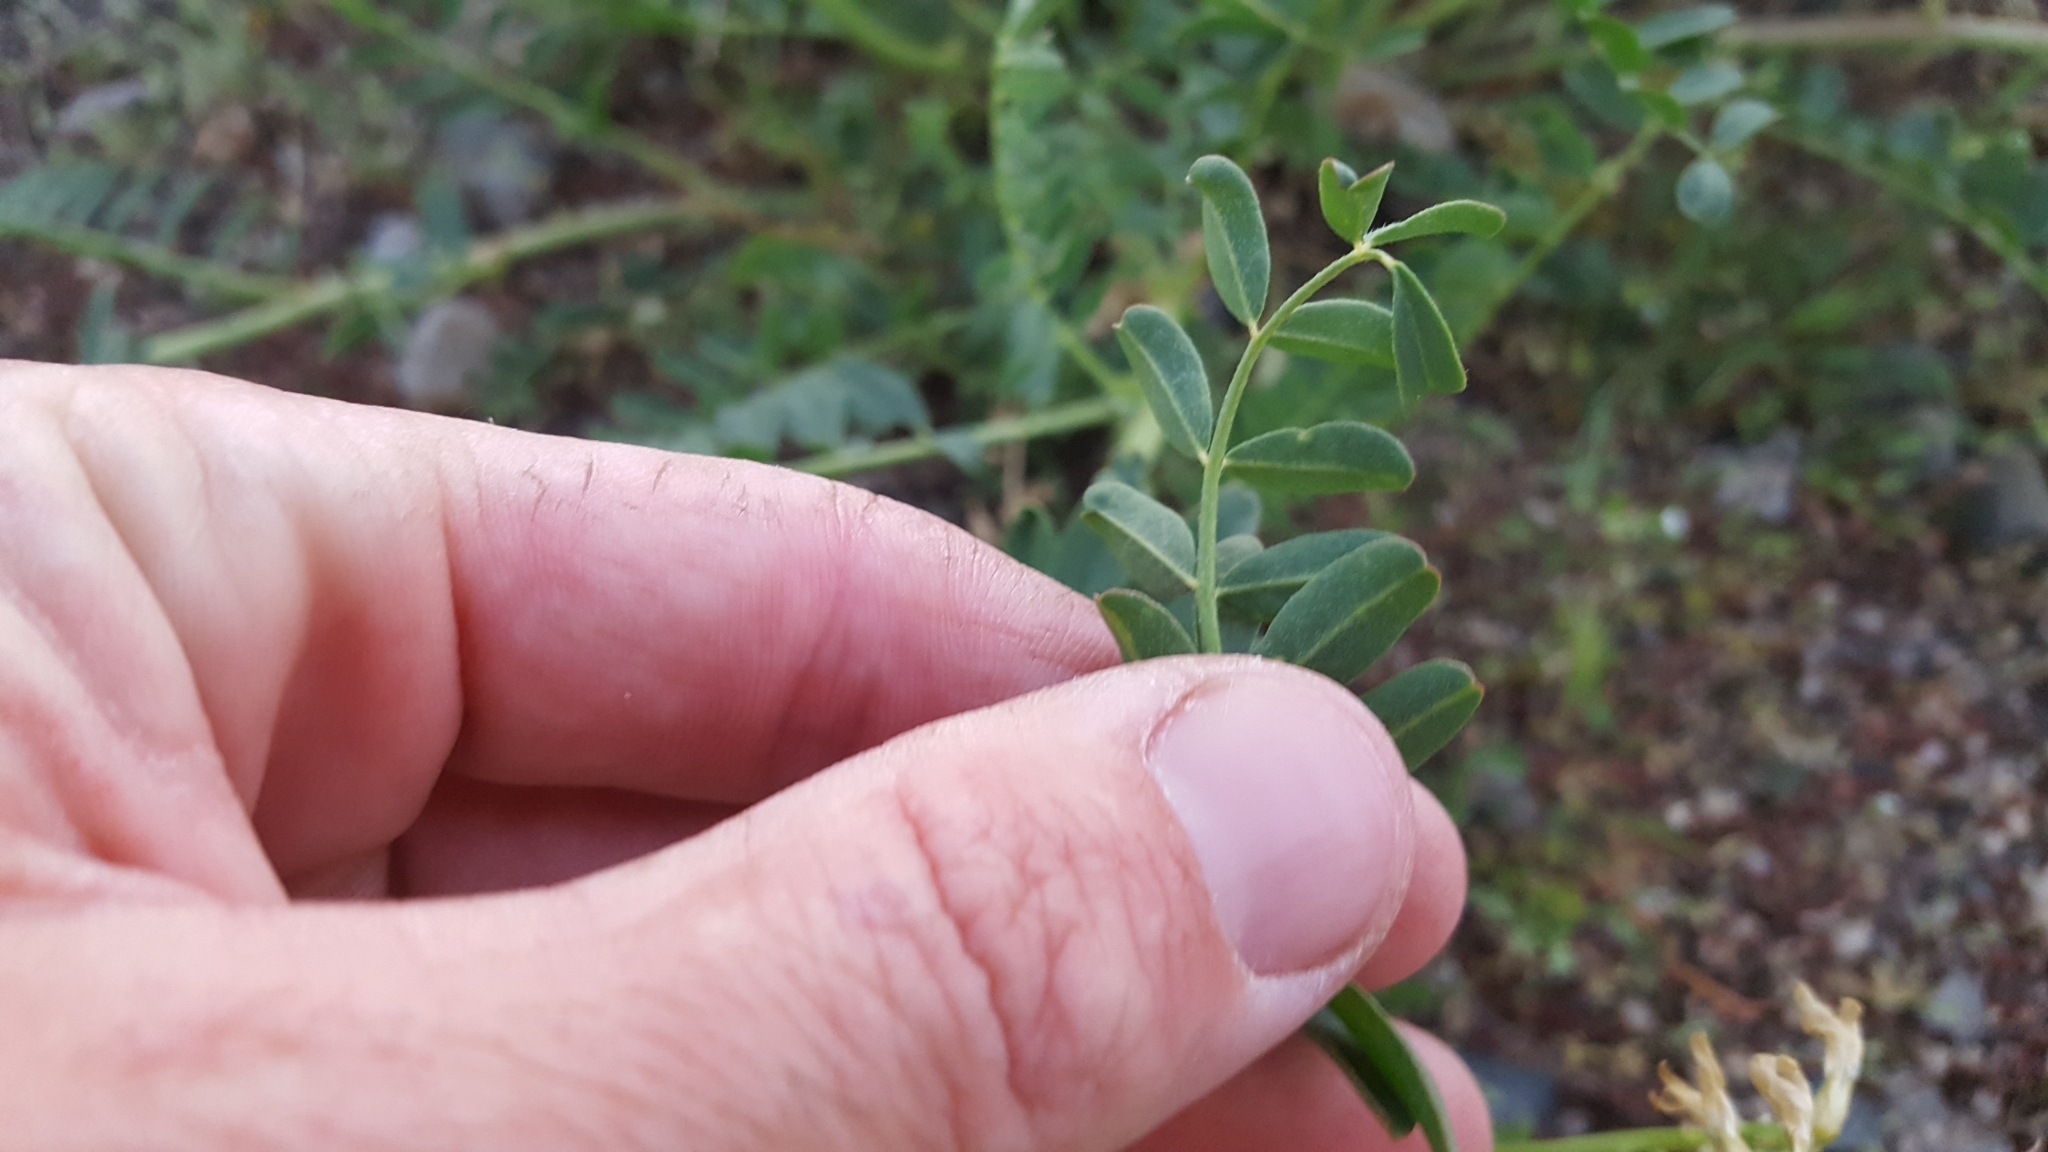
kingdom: Plantae
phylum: Tracheophyta
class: Magnoliopsida
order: Fabales
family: Fabaceae
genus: Astragalus
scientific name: Astragalus pomonensis
